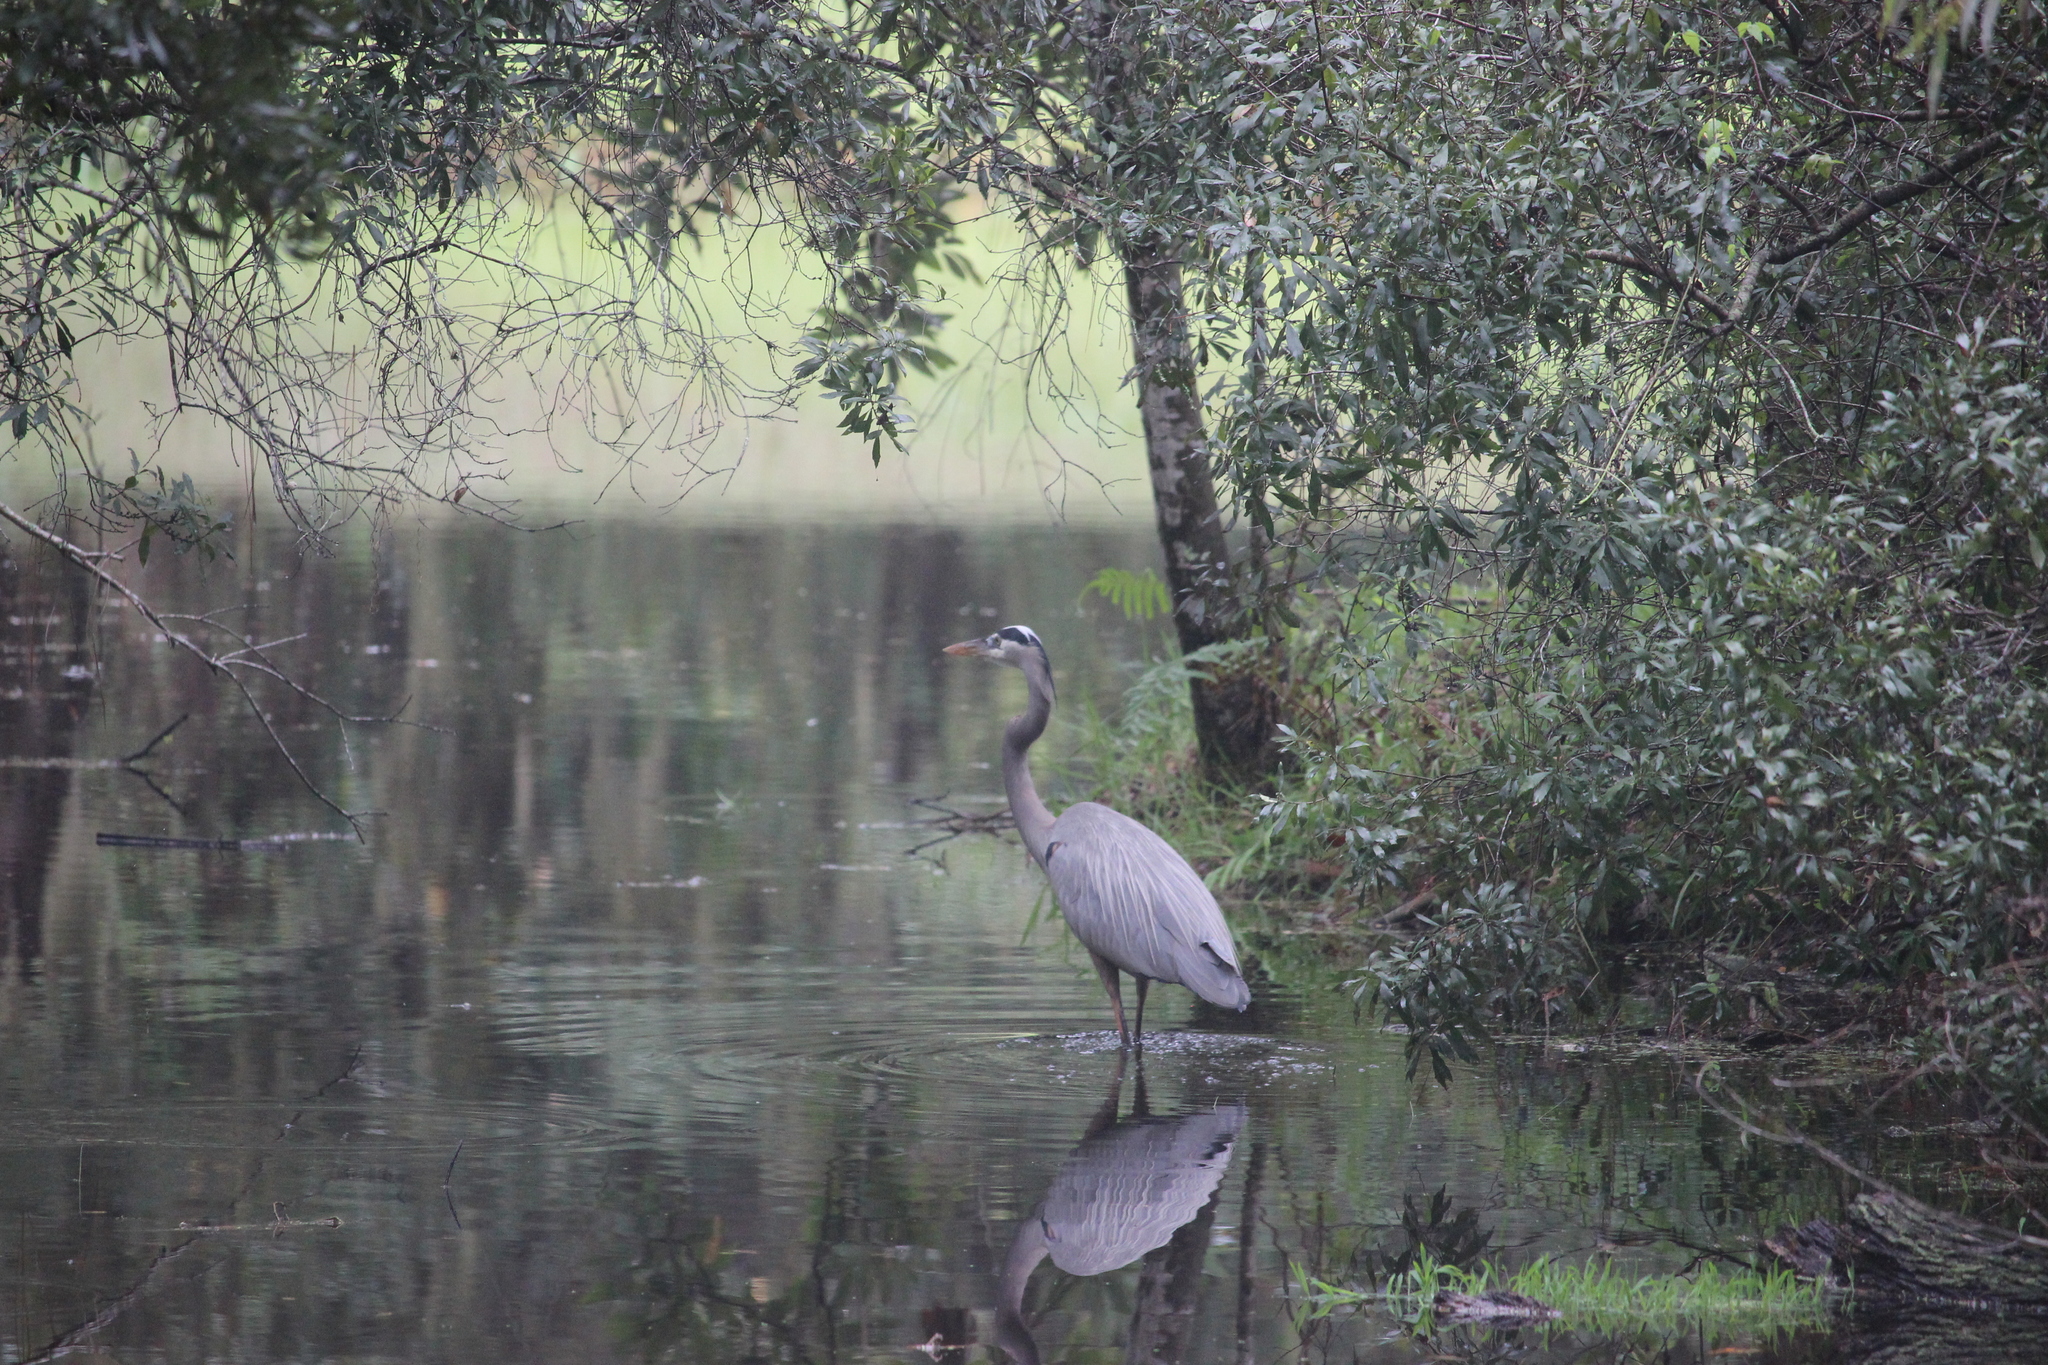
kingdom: Animalia
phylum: Chordata
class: Aves
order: Pelecaniformes
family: Ardeidae
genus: Ardea
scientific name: Ardea herodias
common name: Great blue heron
